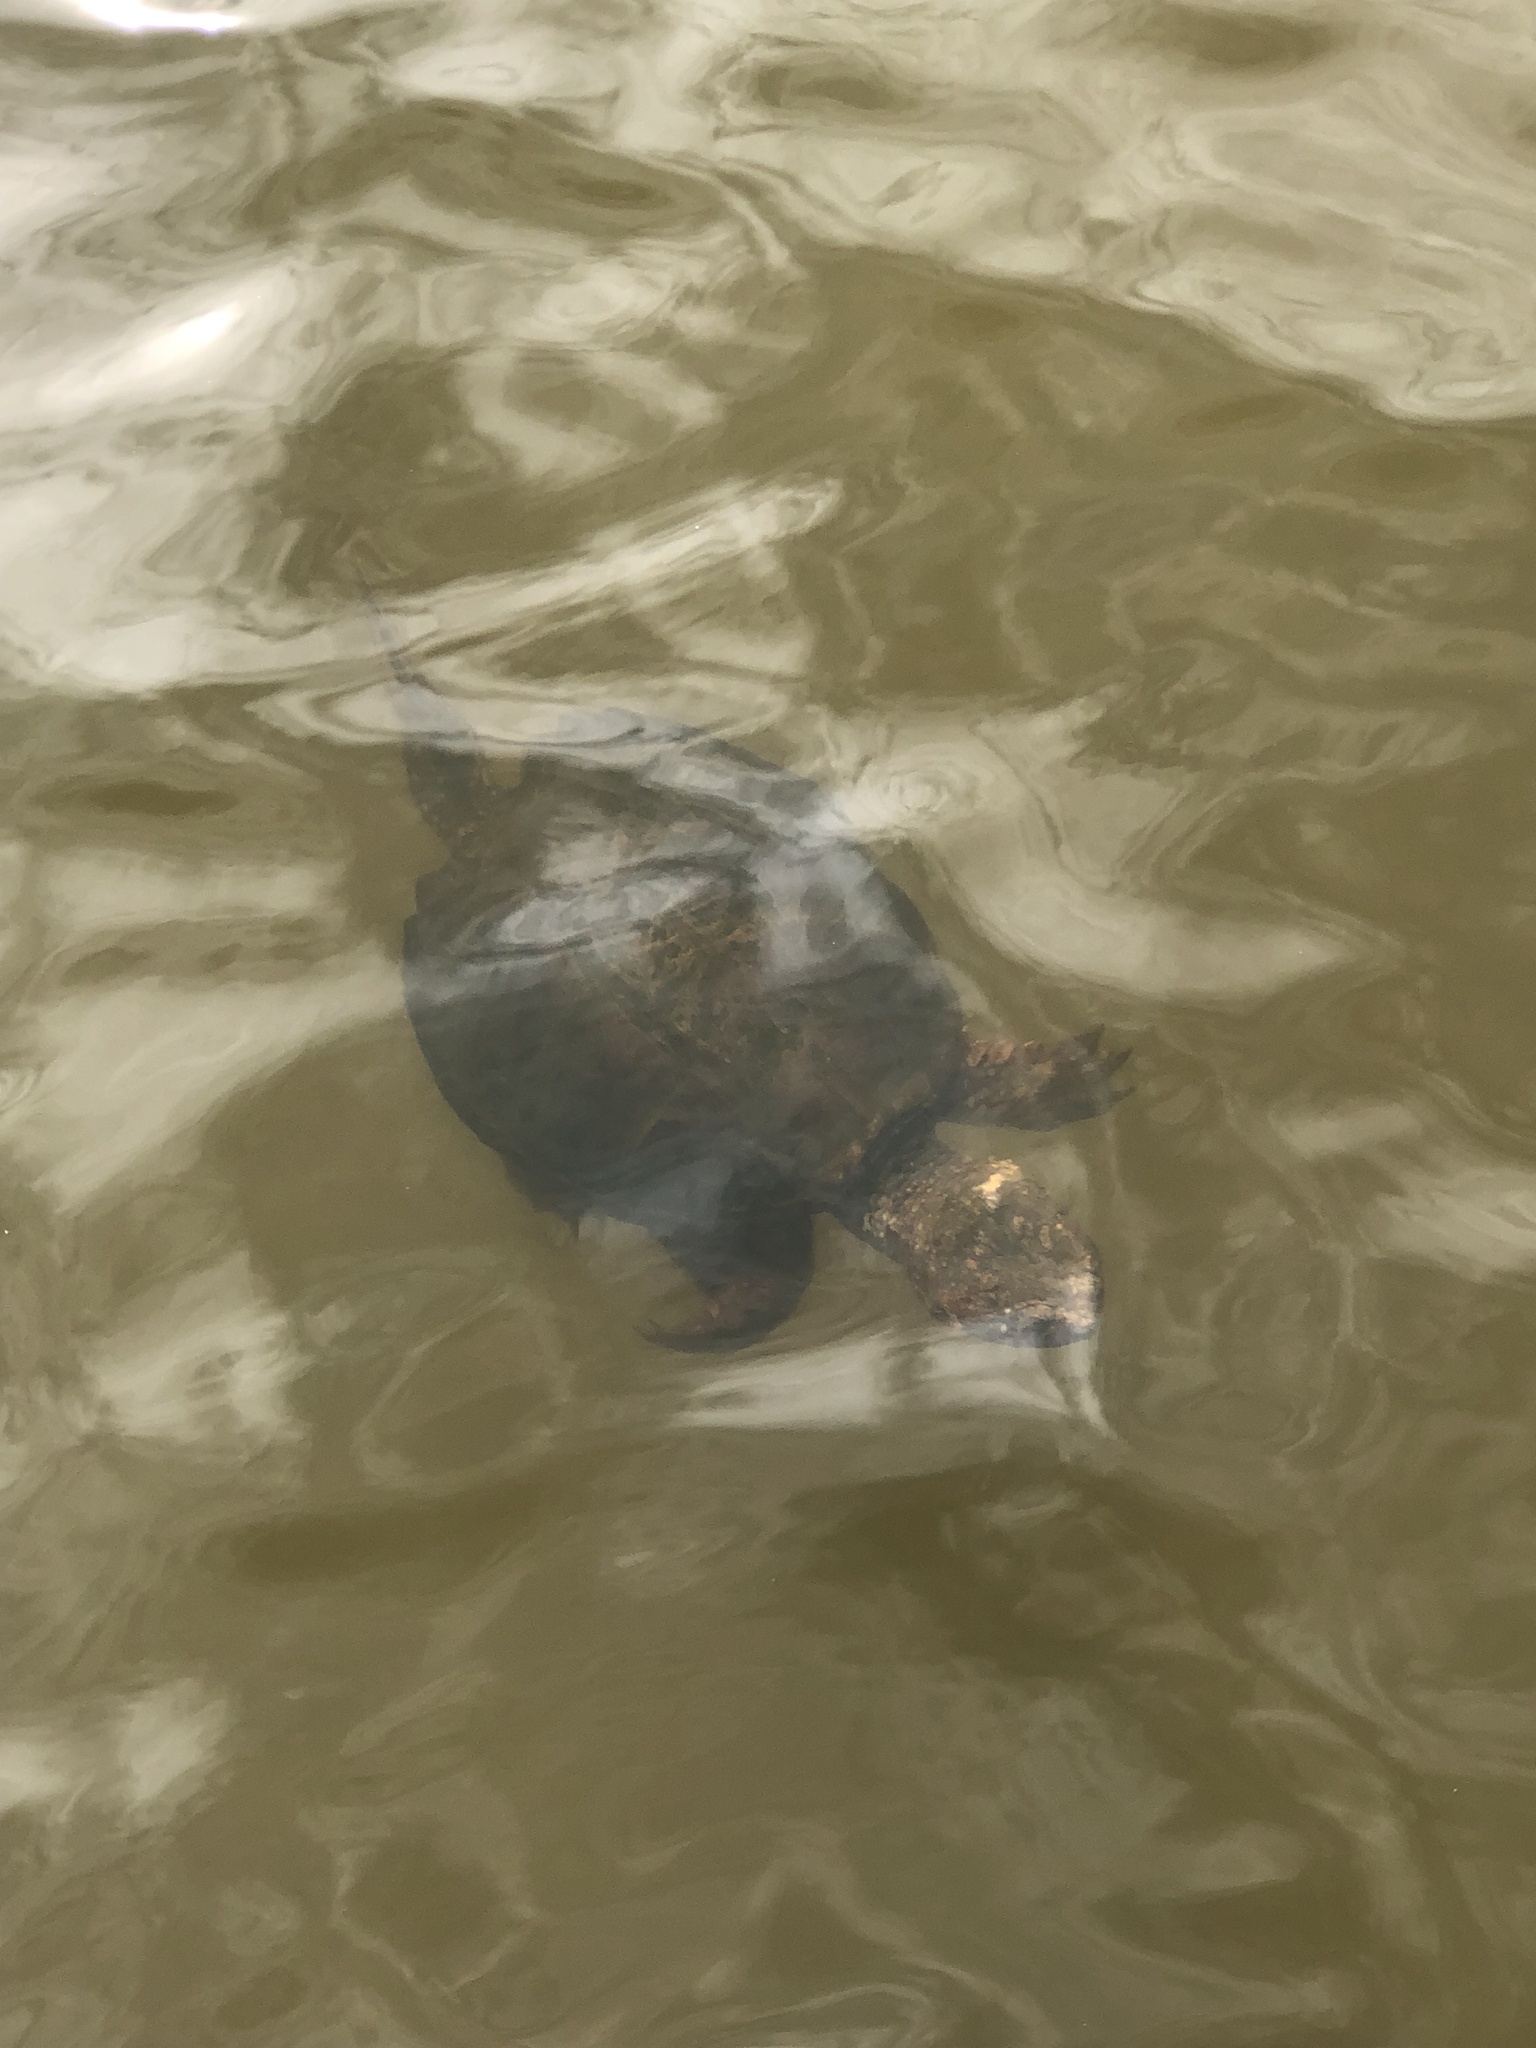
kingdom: Animalia
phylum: Chordata
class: Testudines
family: Chelydridae
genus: Chelydra
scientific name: Chelydra serpentina
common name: Common snapping turtle
